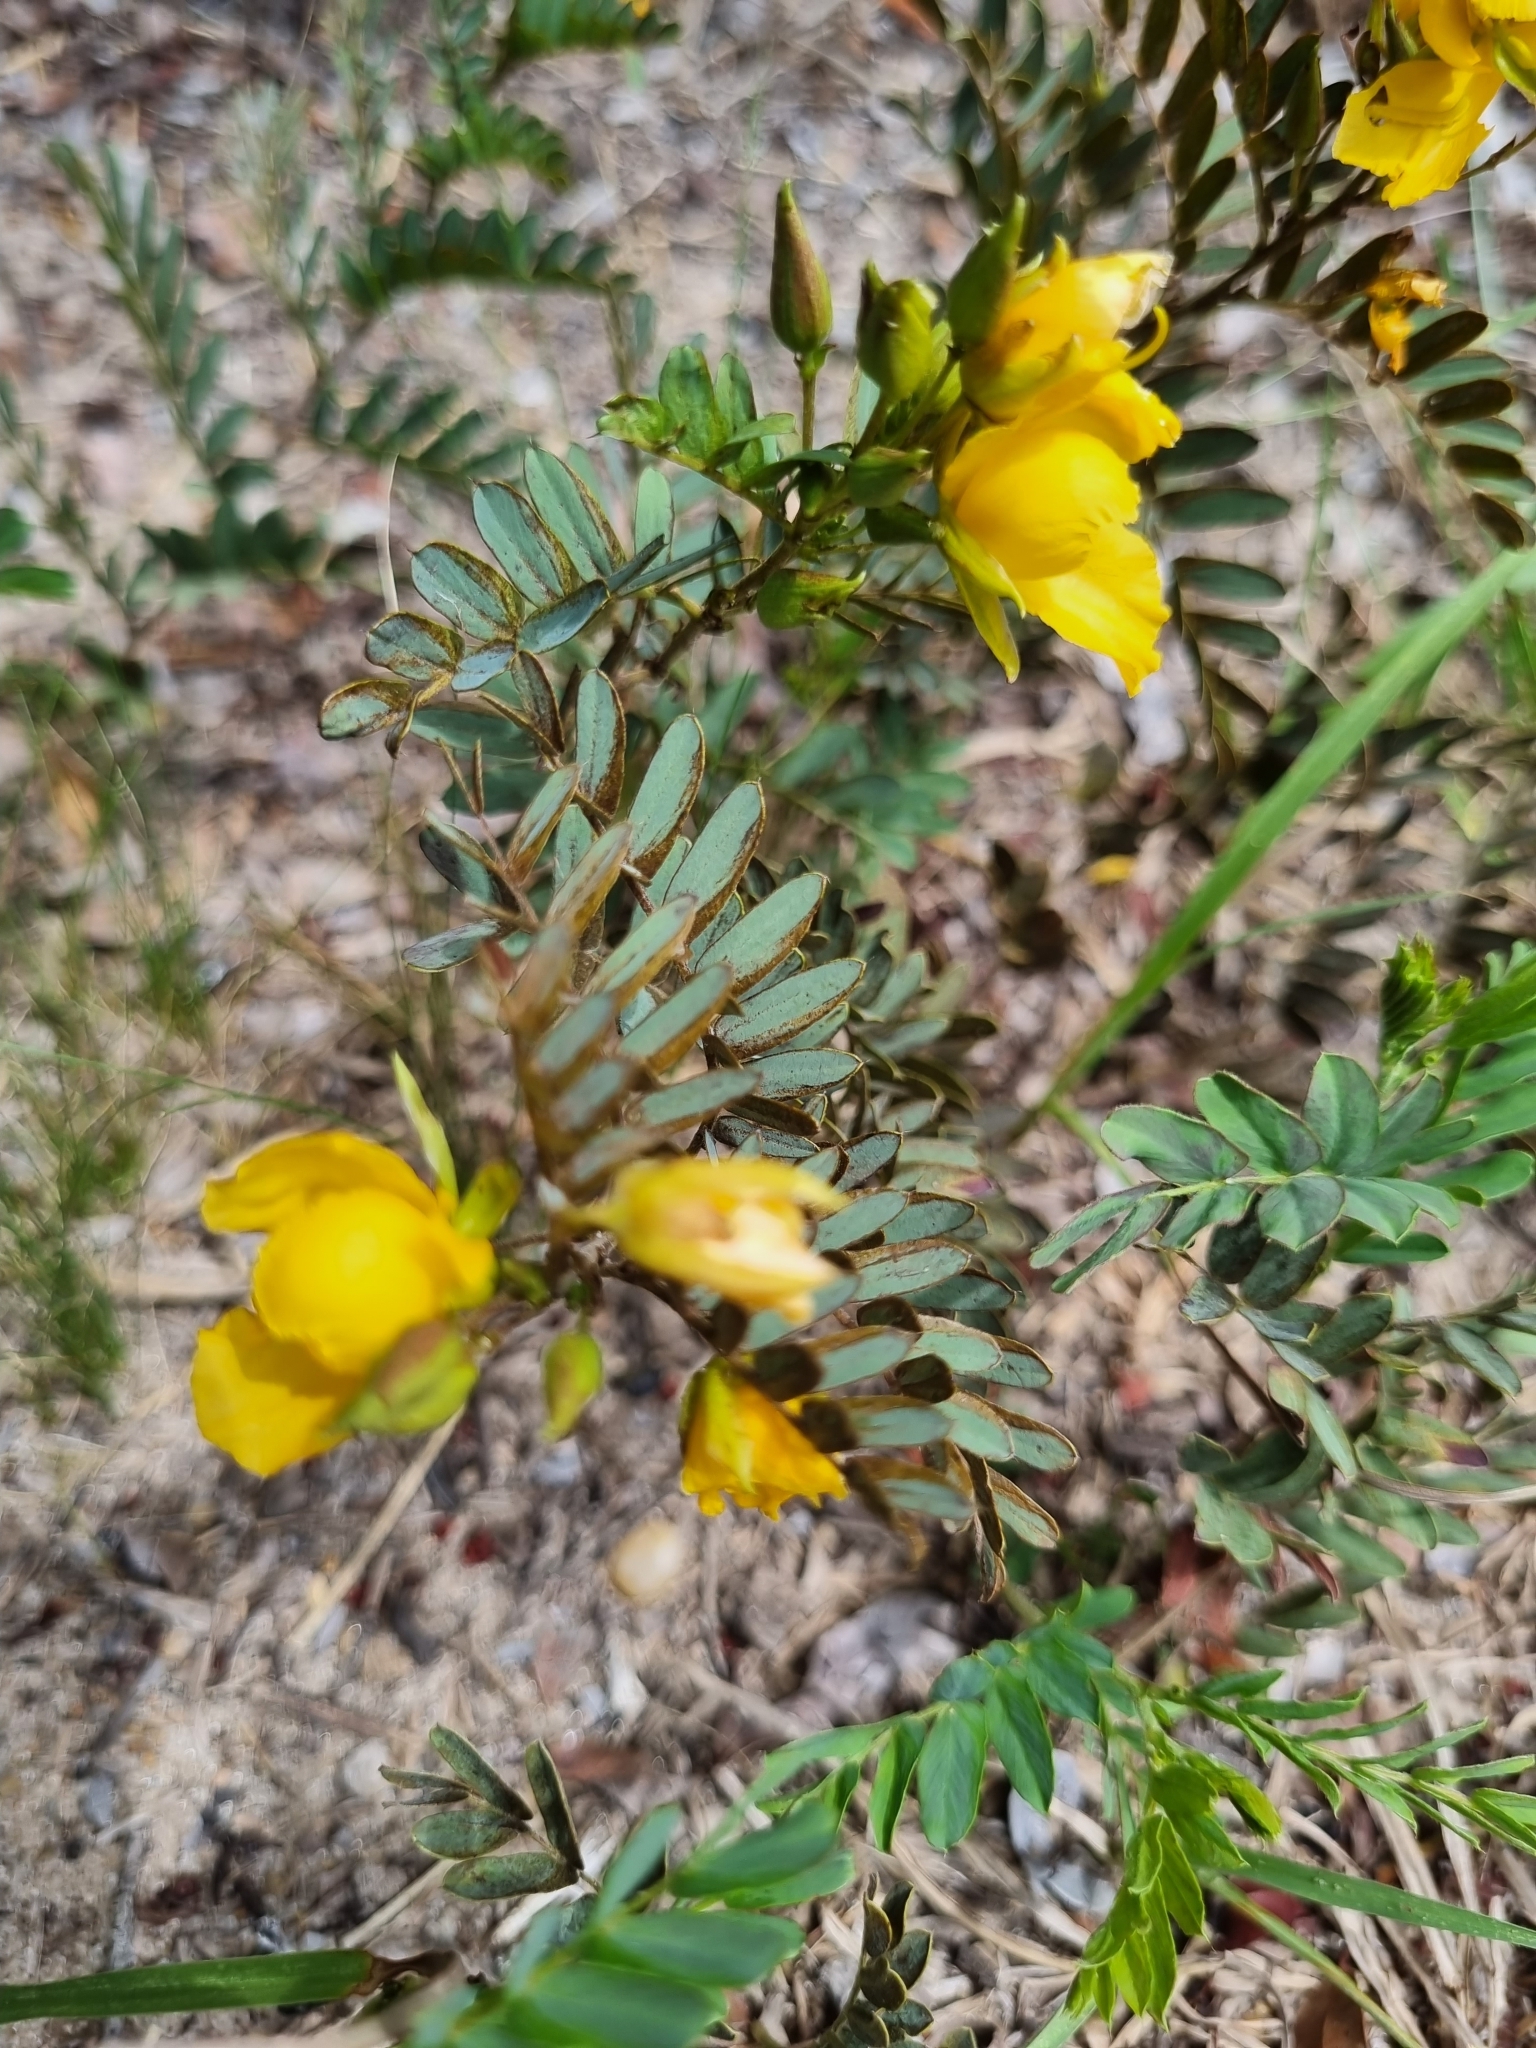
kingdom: Plantae
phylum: Tracheophyta
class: Magnoliopsida
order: Fabales
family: Fabaceae
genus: Chamaecrista
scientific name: Chamaecrista repens
